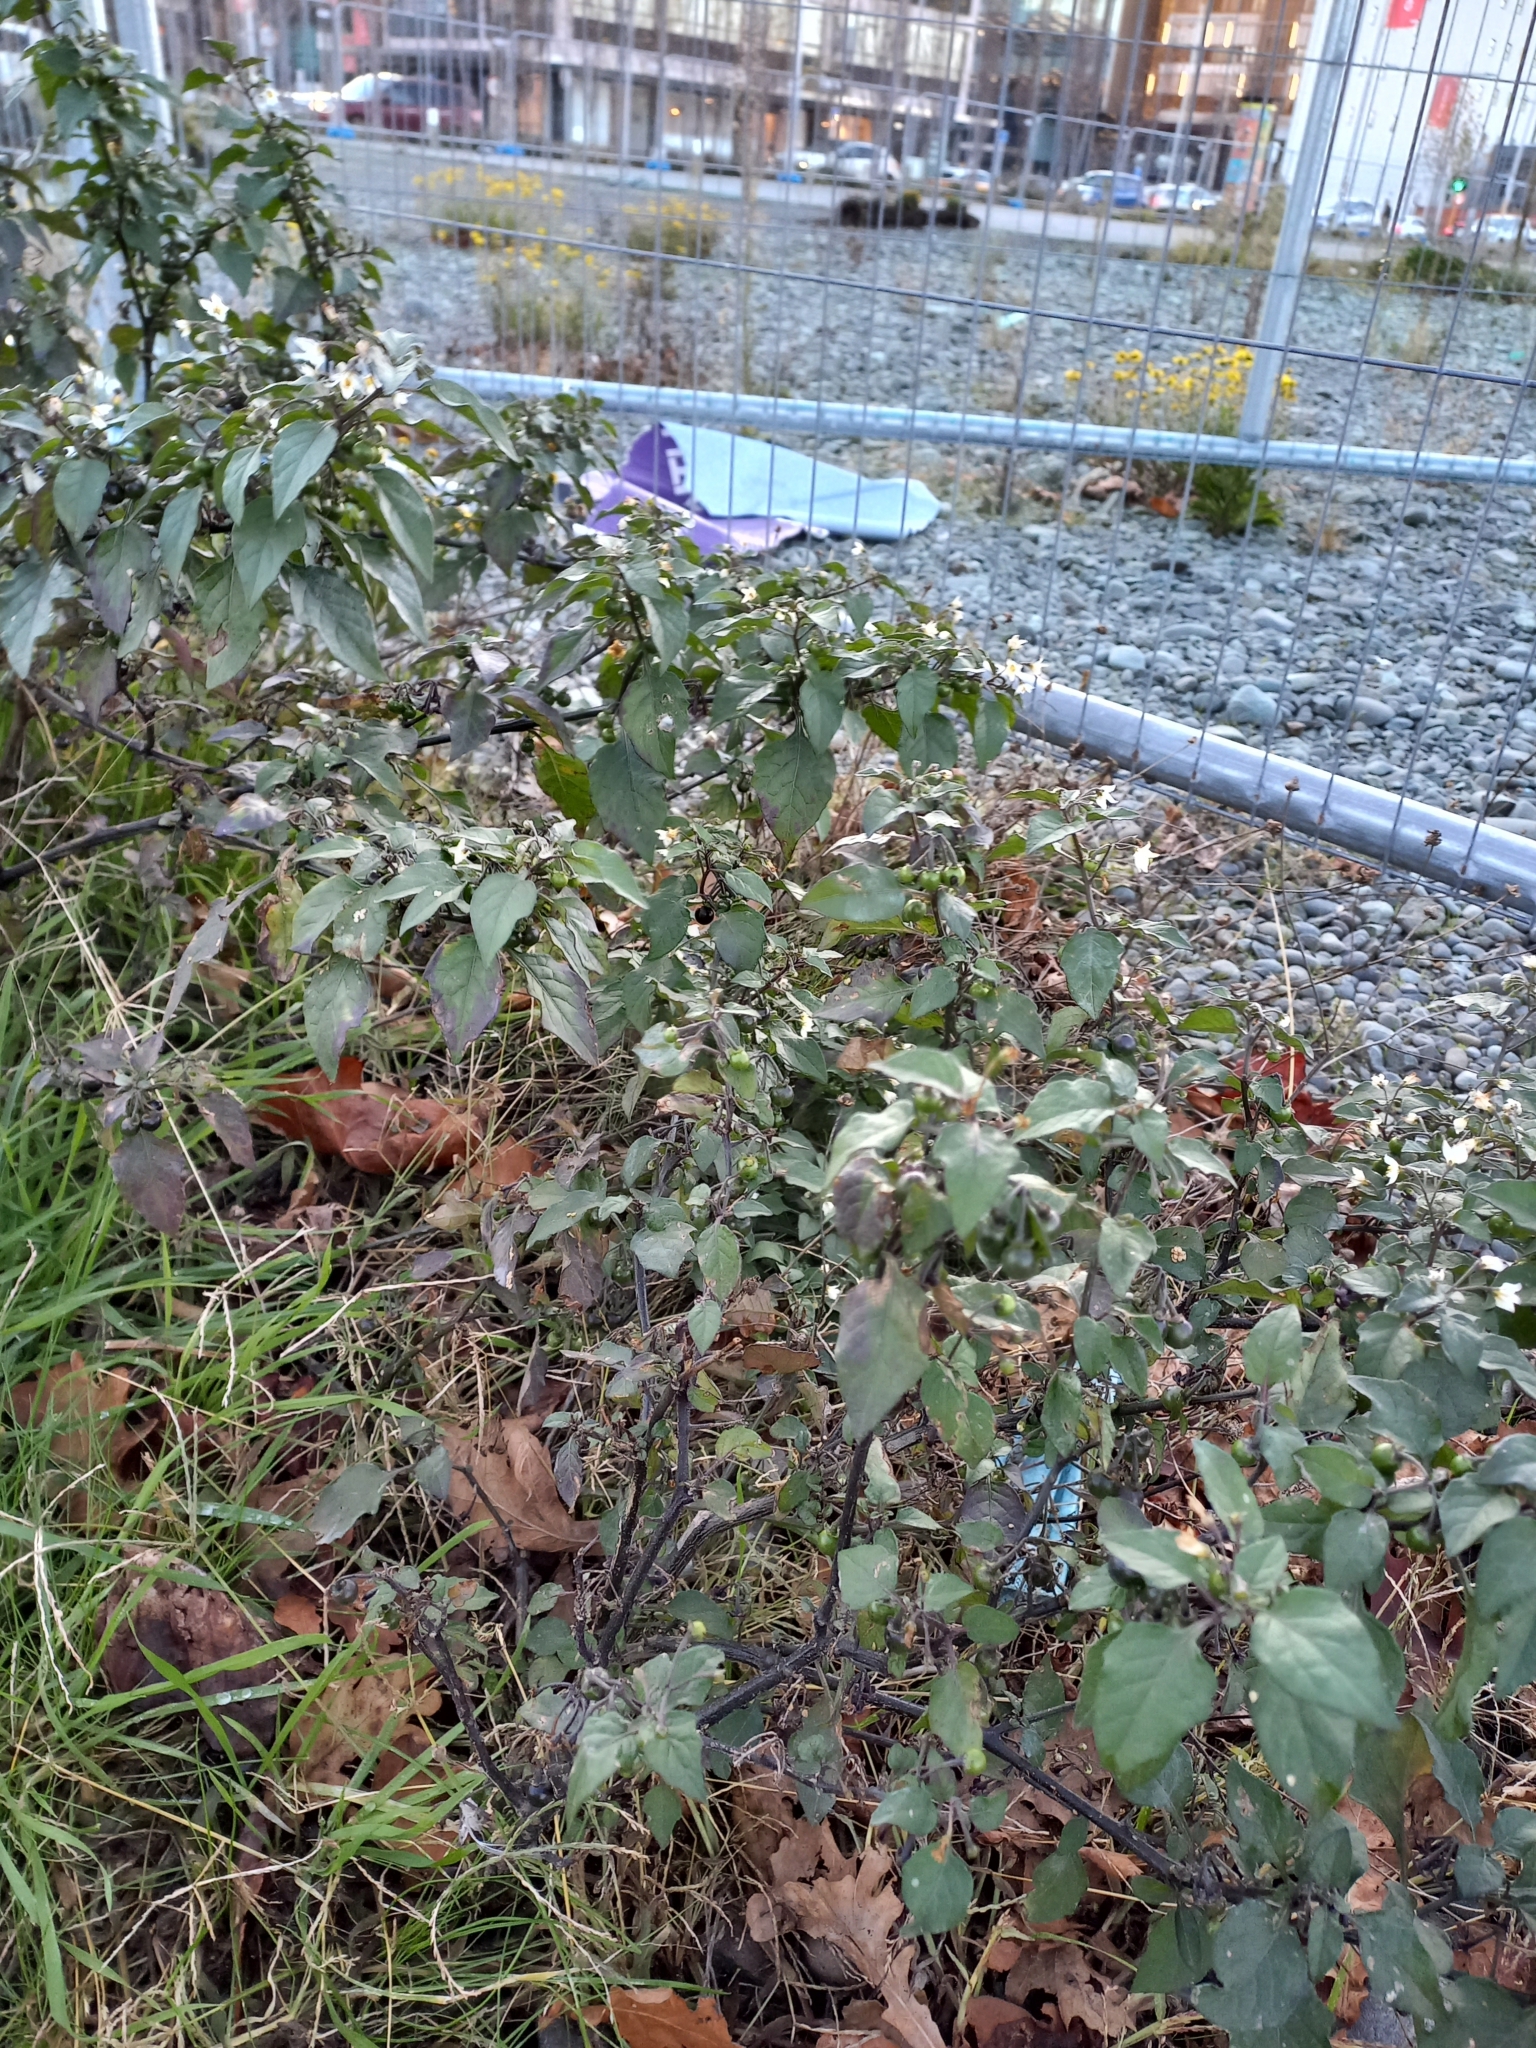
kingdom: Plantae
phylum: Tracheophyta
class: Magnoliopsida
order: Solanales
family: Solanaceae
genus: Solanum
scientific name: Solanum nigrum
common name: Black nightshade
